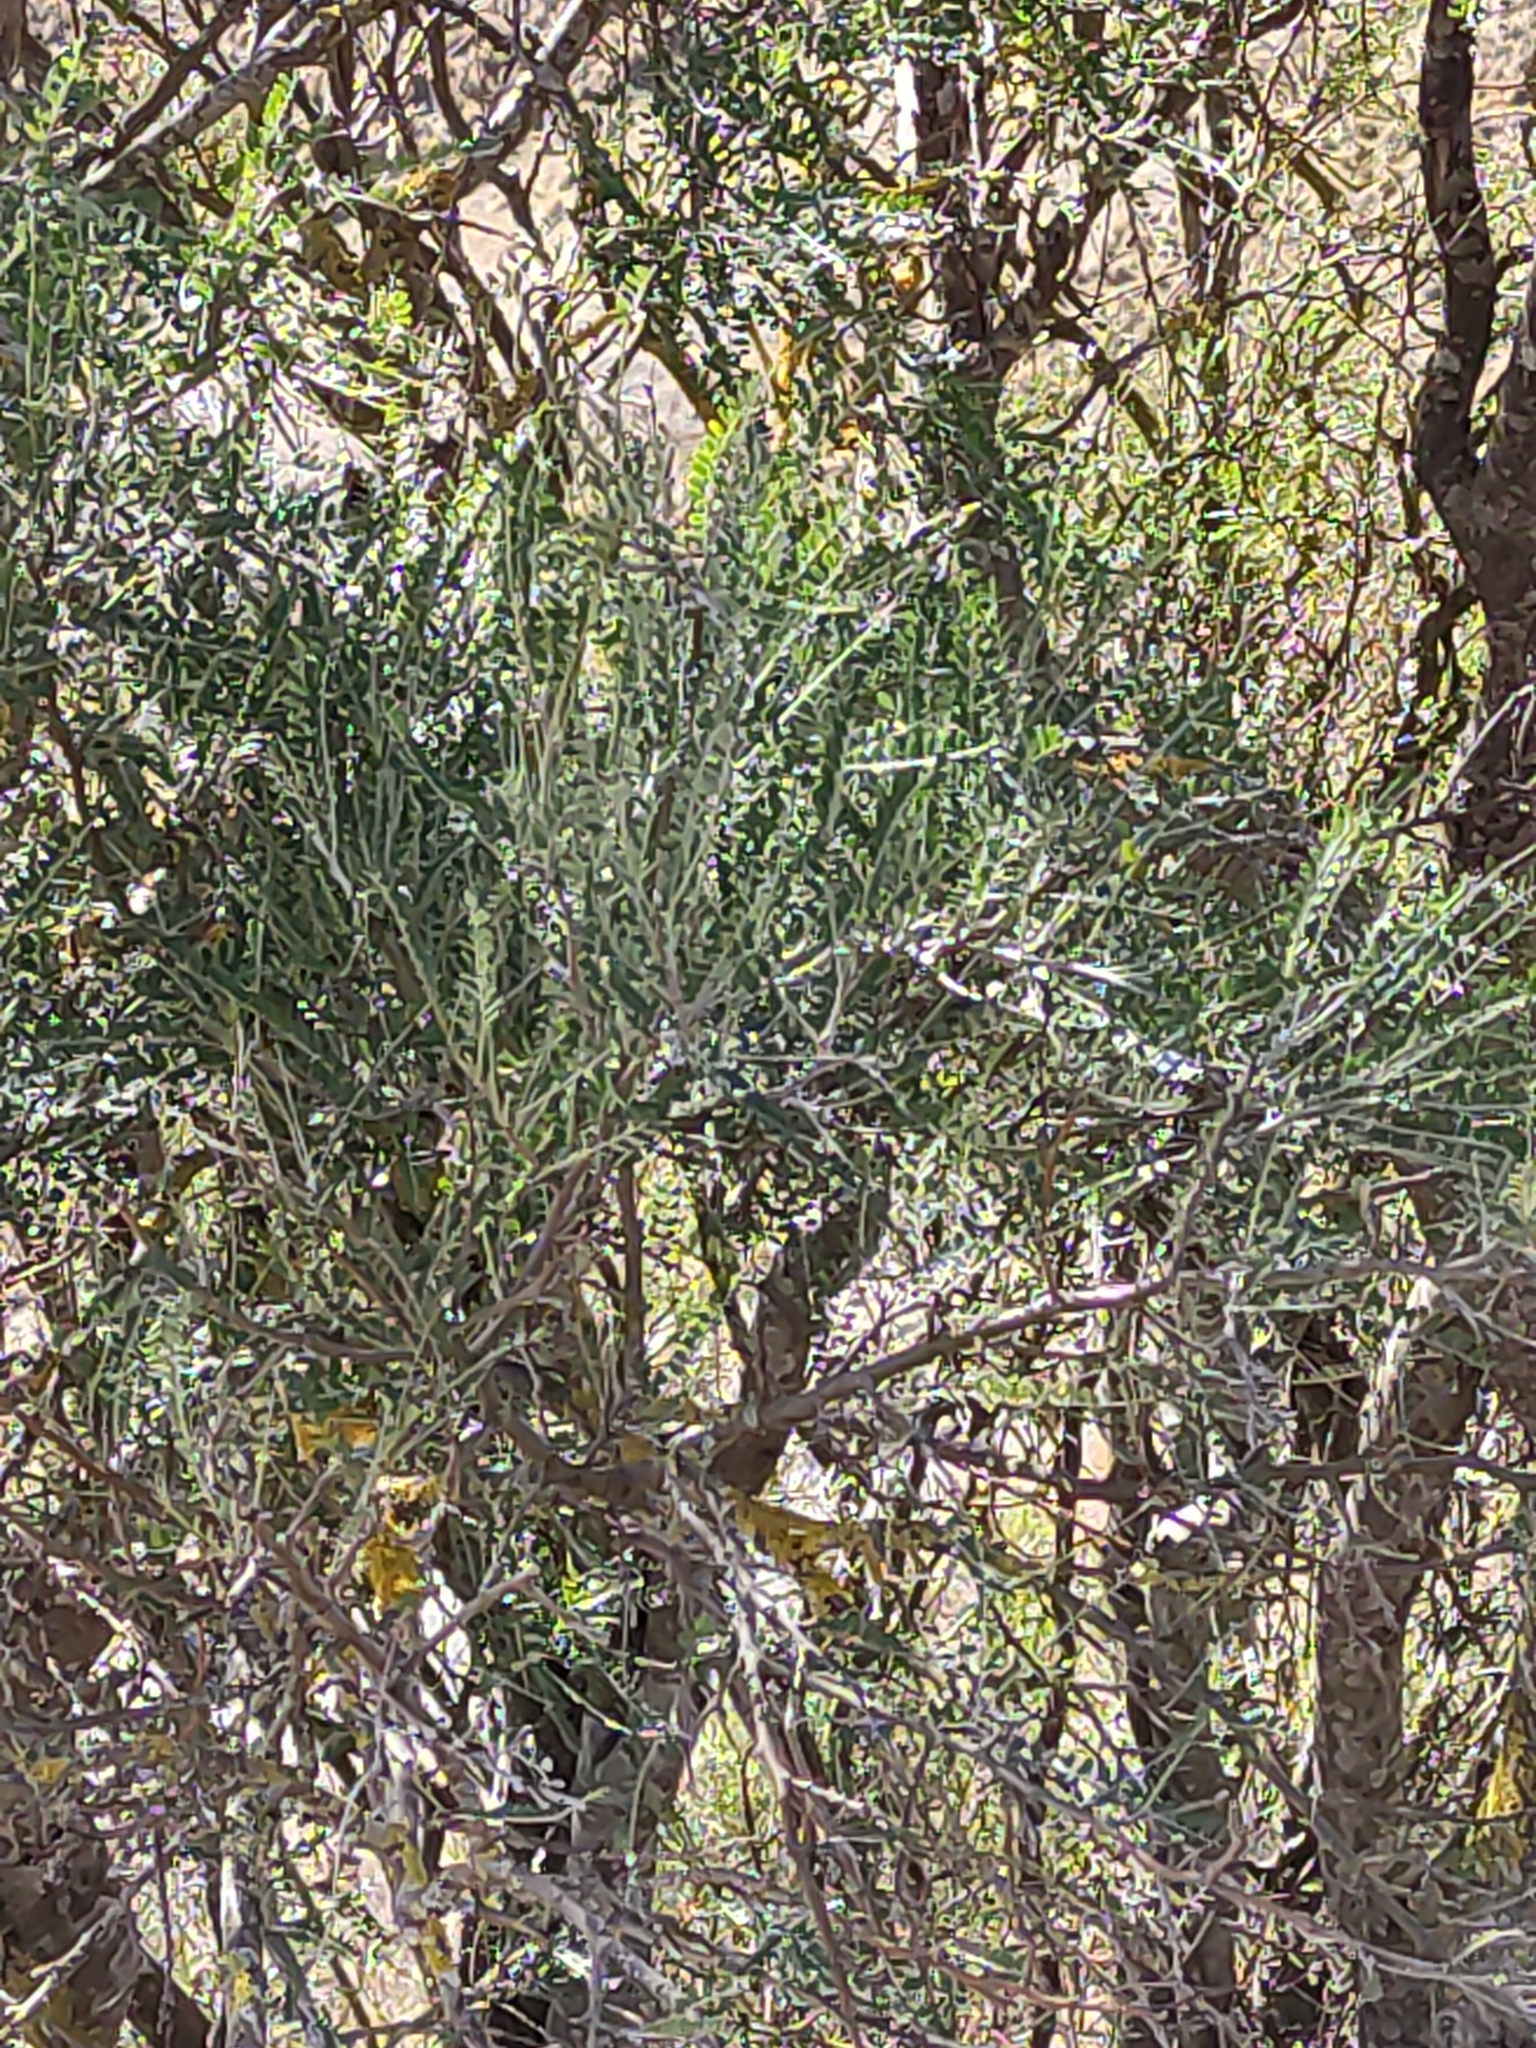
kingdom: Plantae
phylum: Tracheophyta
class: Magnoliopsida
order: Fabales
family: Fabaceae
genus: Sophora
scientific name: Sophora microphylla
